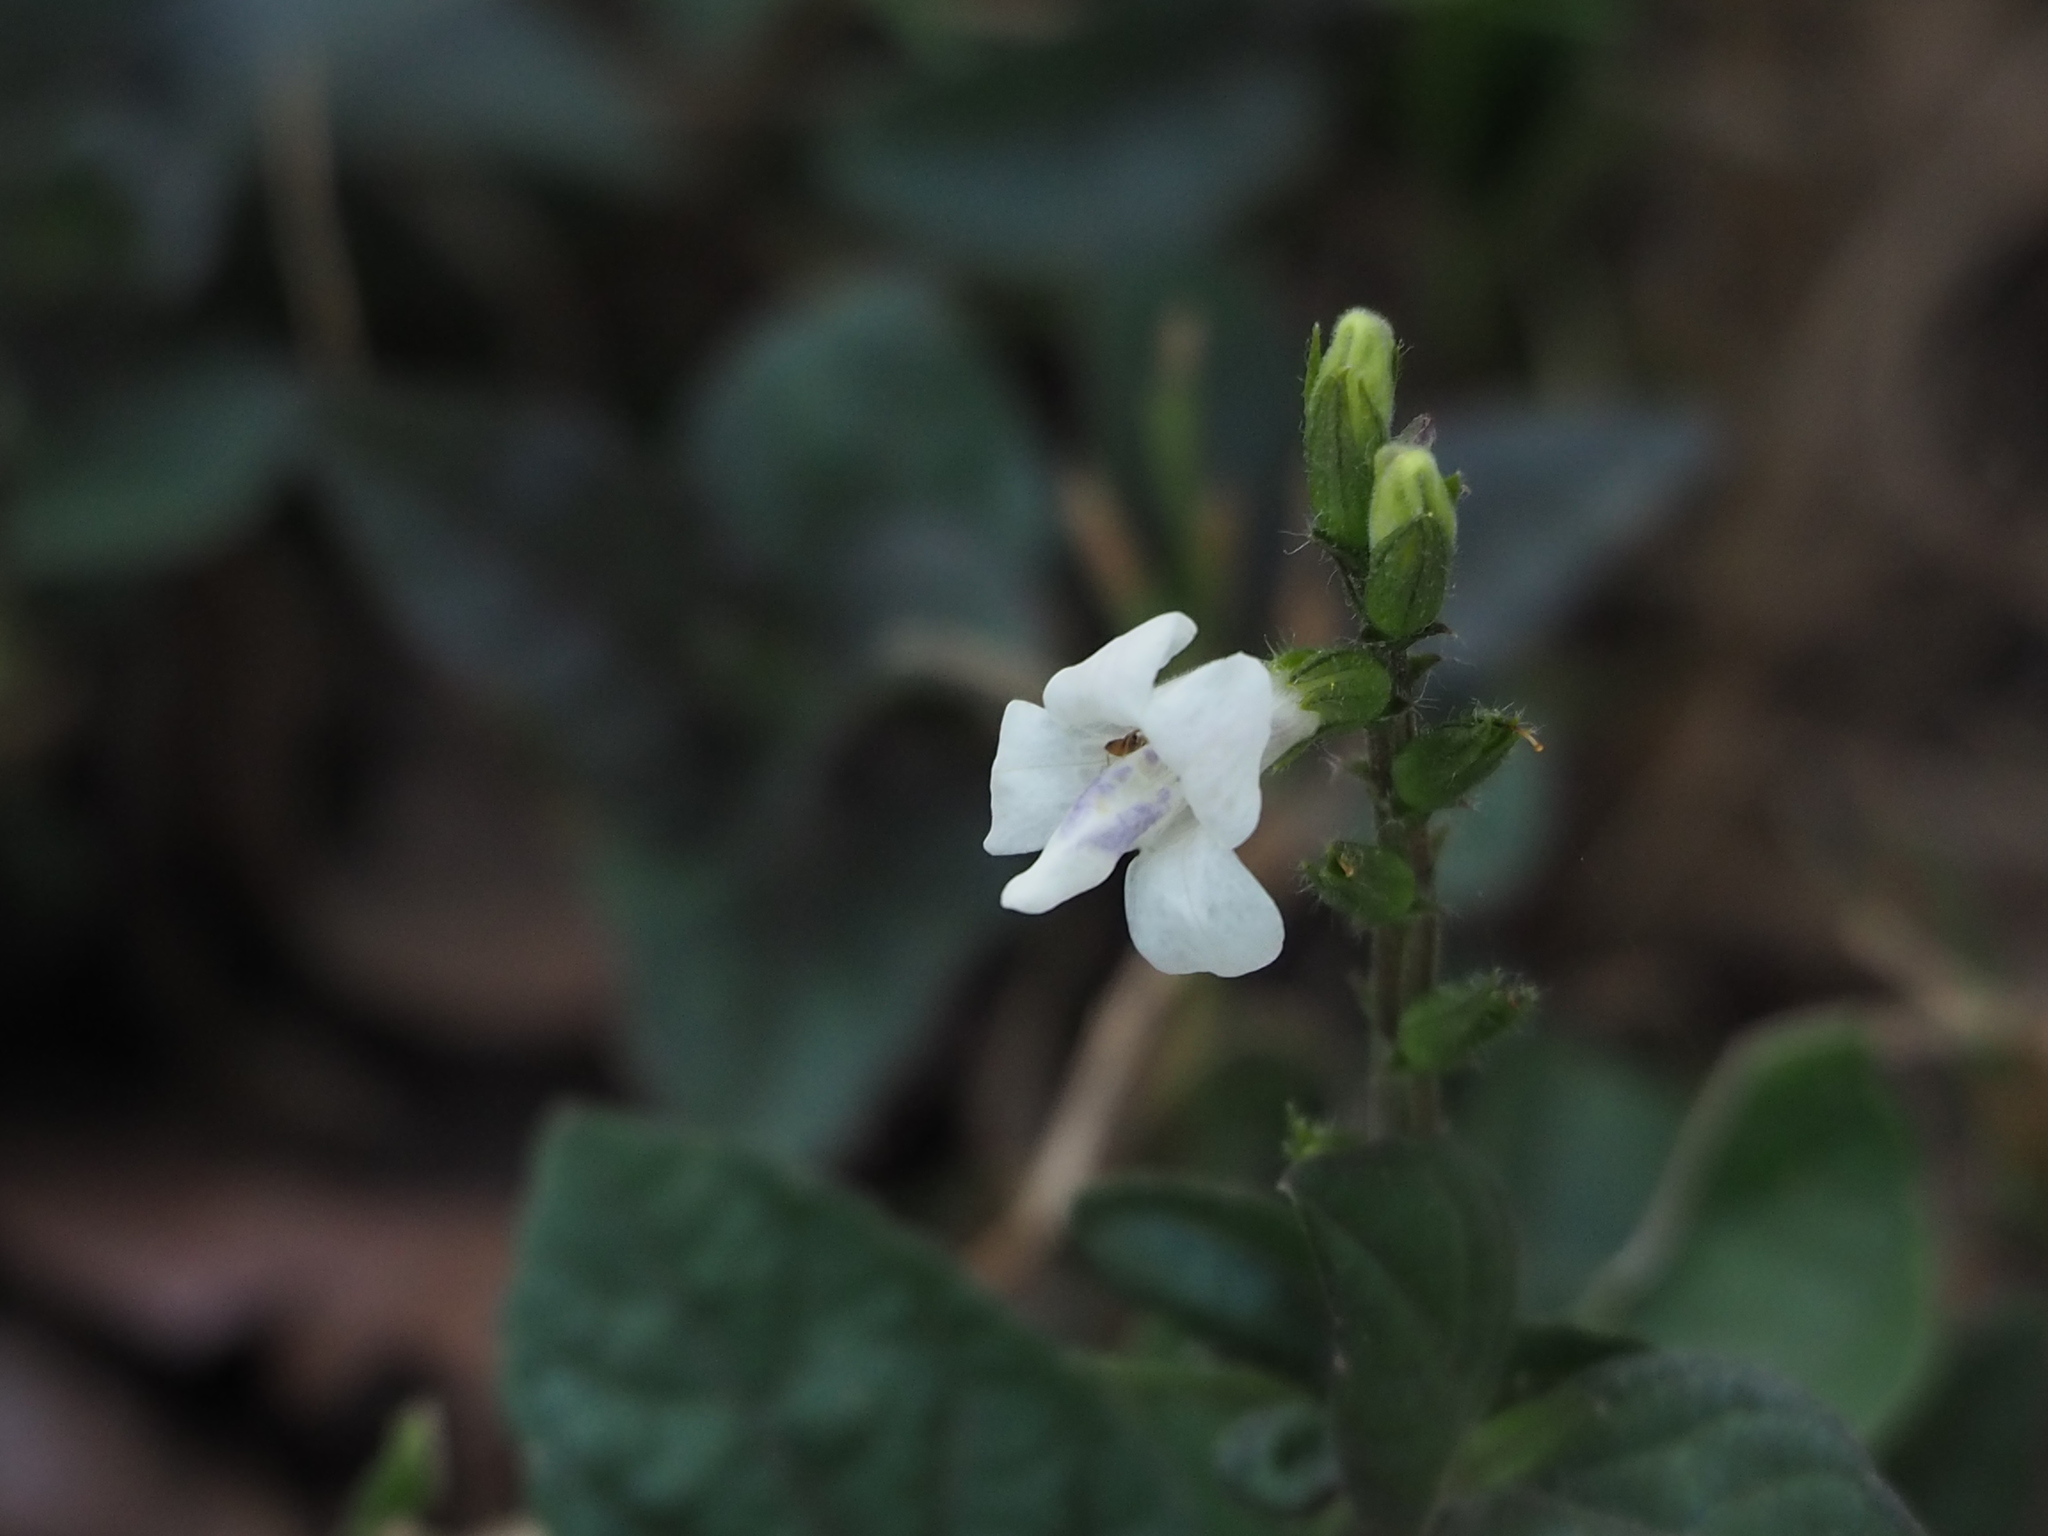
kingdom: Plantae
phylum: Tracheophyta
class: Magnoliopsida
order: Lamiales
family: Acanthaceae
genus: Asystasia
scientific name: Asystasia intrusa
